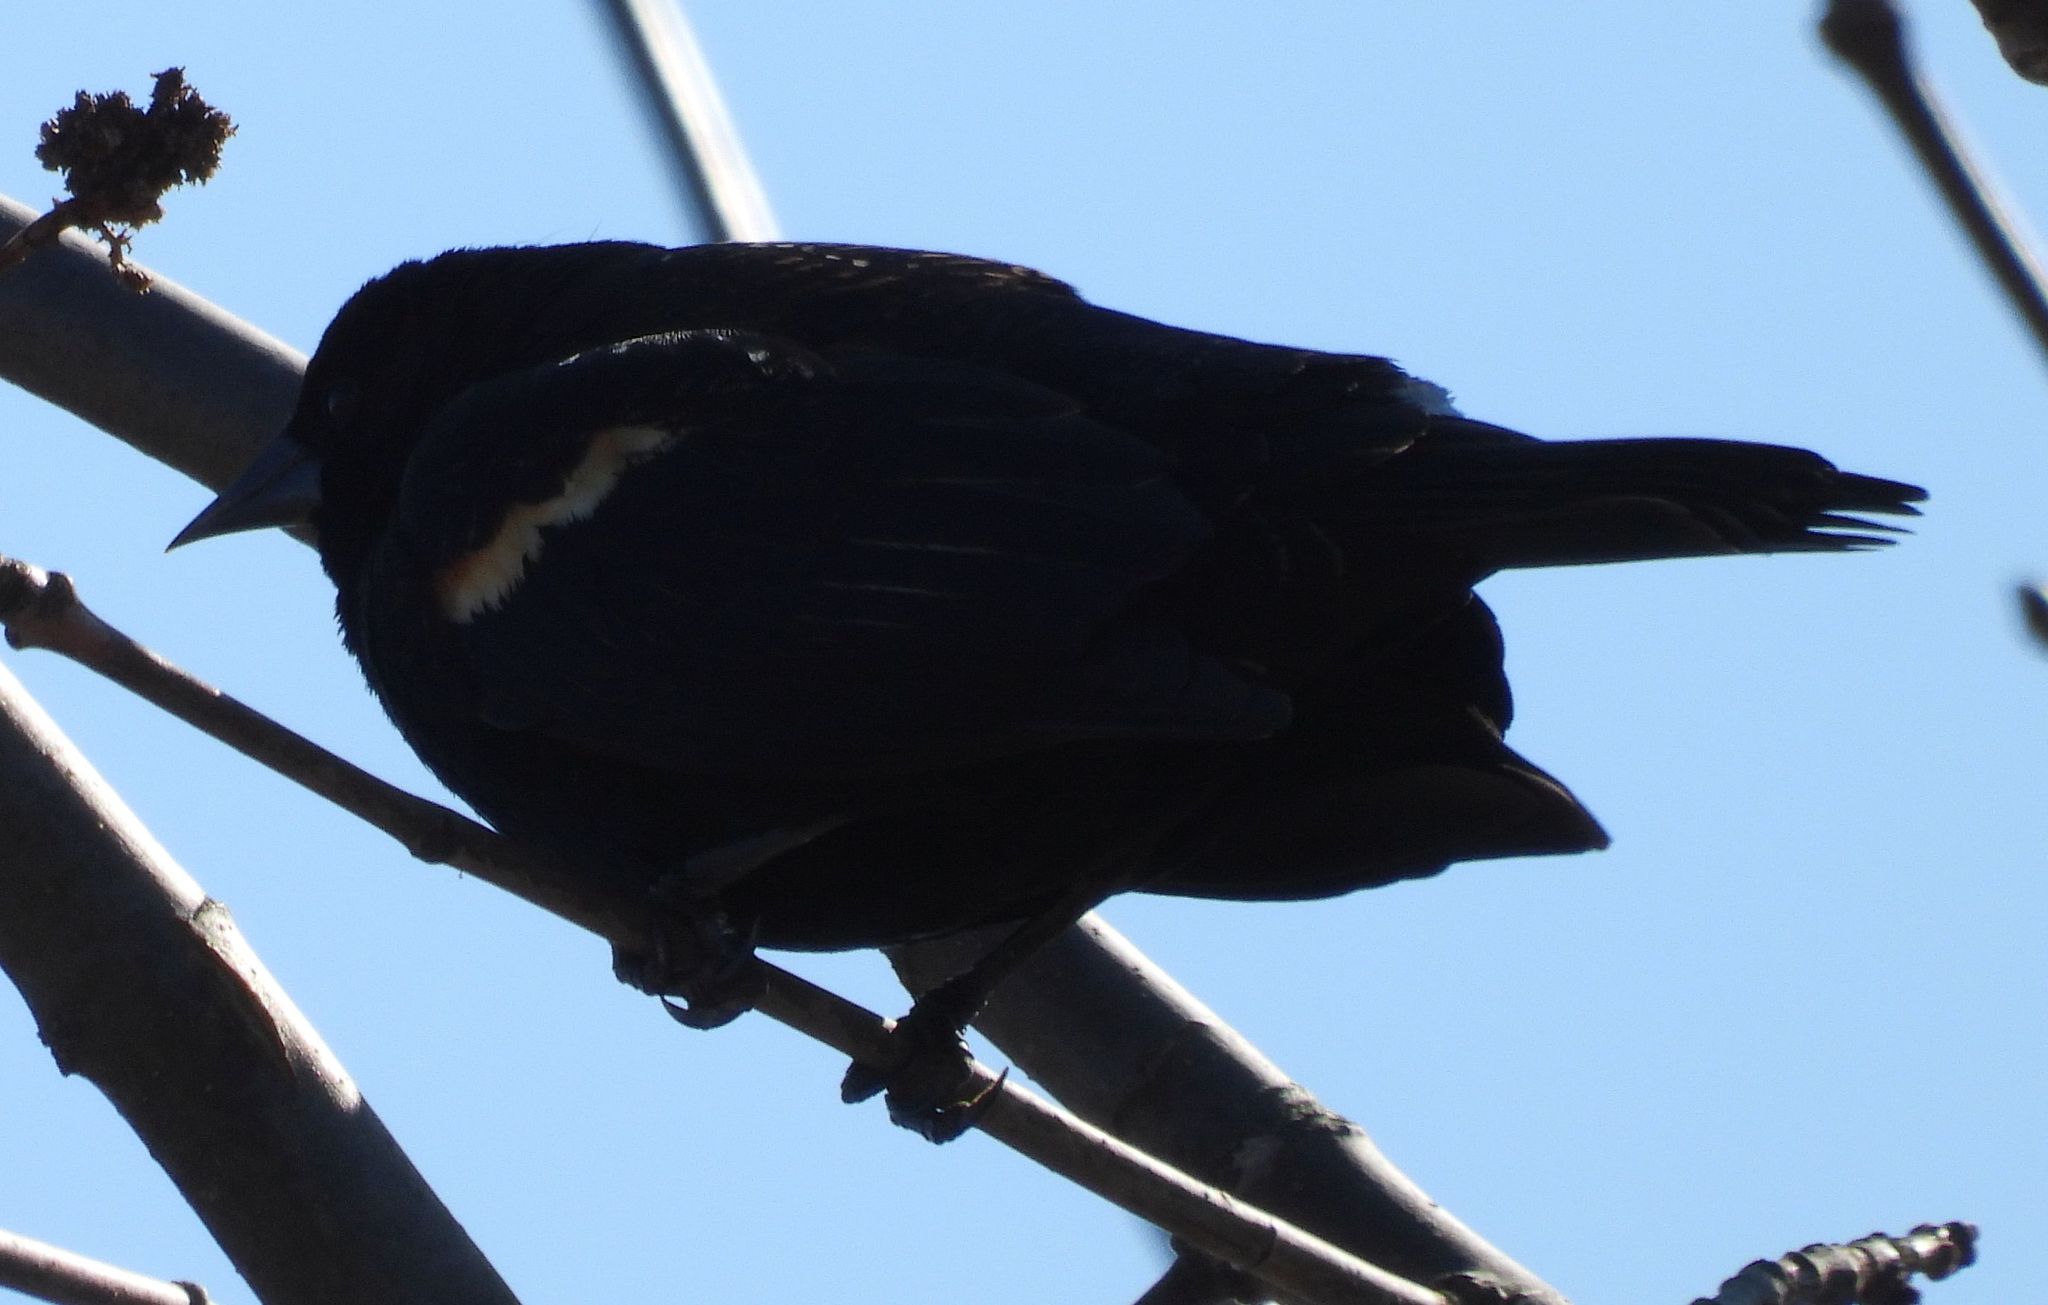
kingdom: Animalia
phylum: Chordata
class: Aves
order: Passeriformes
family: Icteridae
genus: Agelaius
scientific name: Agelaius phoeniceus
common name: Red-winged blackbird
